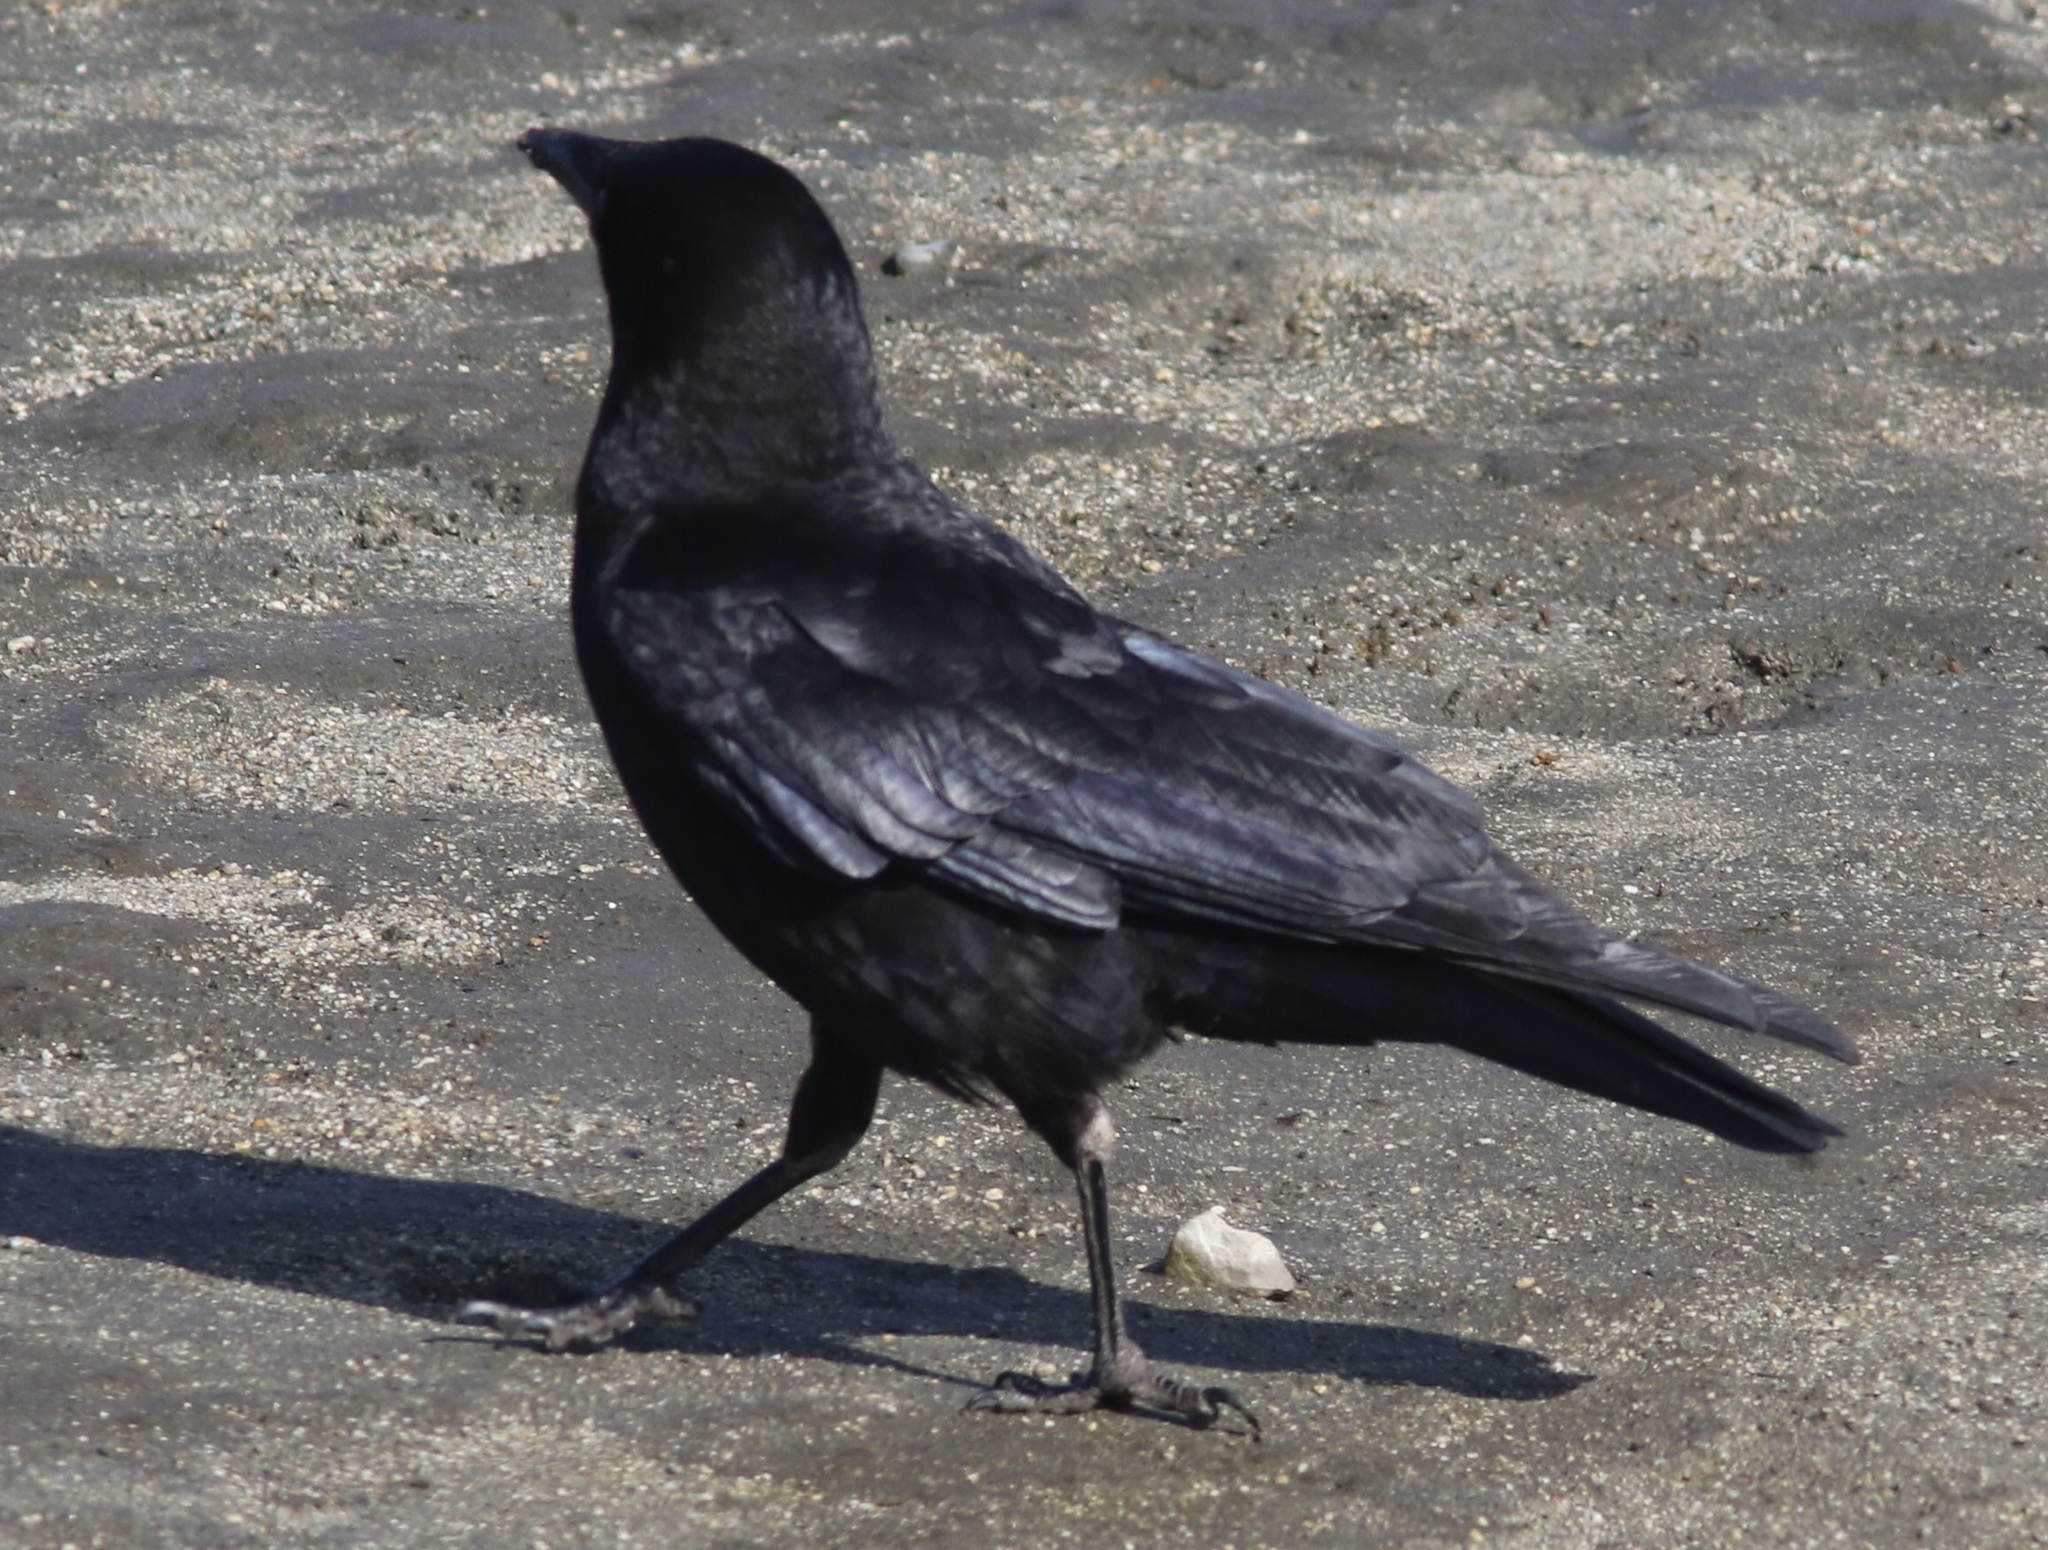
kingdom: Animalia
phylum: Chordata
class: Aves
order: Passeriformes
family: Corvidae
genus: Corvus
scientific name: Corvus corax
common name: Common raven
